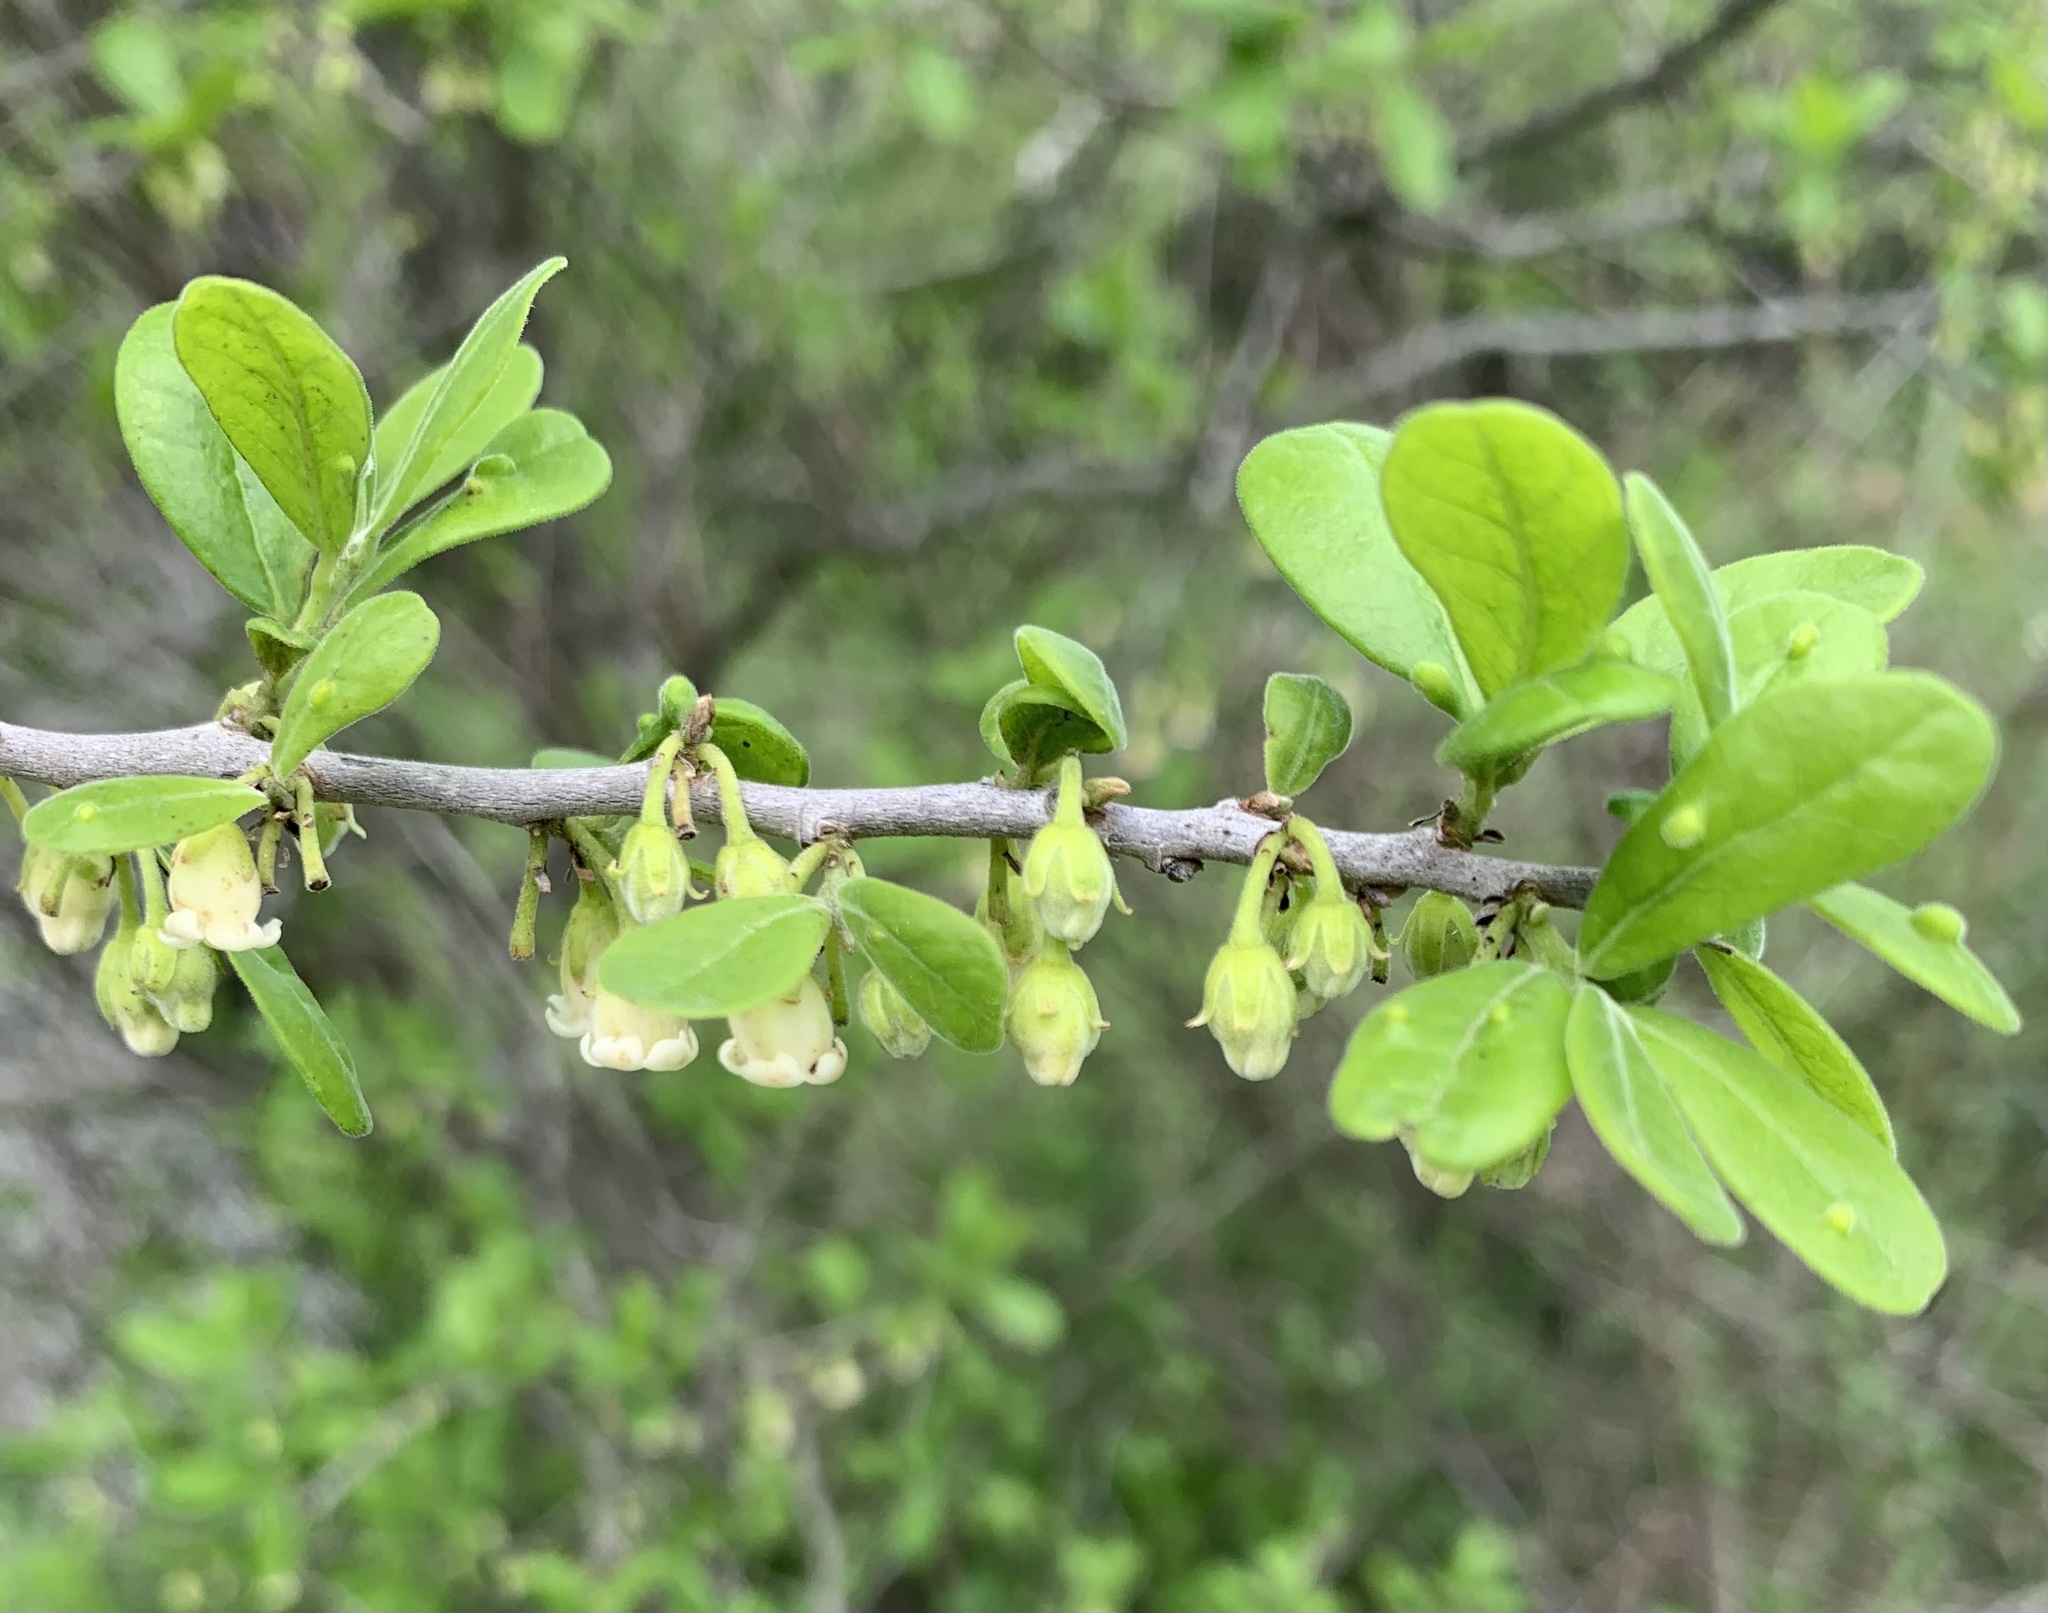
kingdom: Plantae
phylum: Tracheophyta
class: Magnoliopsida
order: Ericales
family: Ebenaceae
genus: Diospyros
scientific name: Diospyros texana
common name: Texas persimmon
